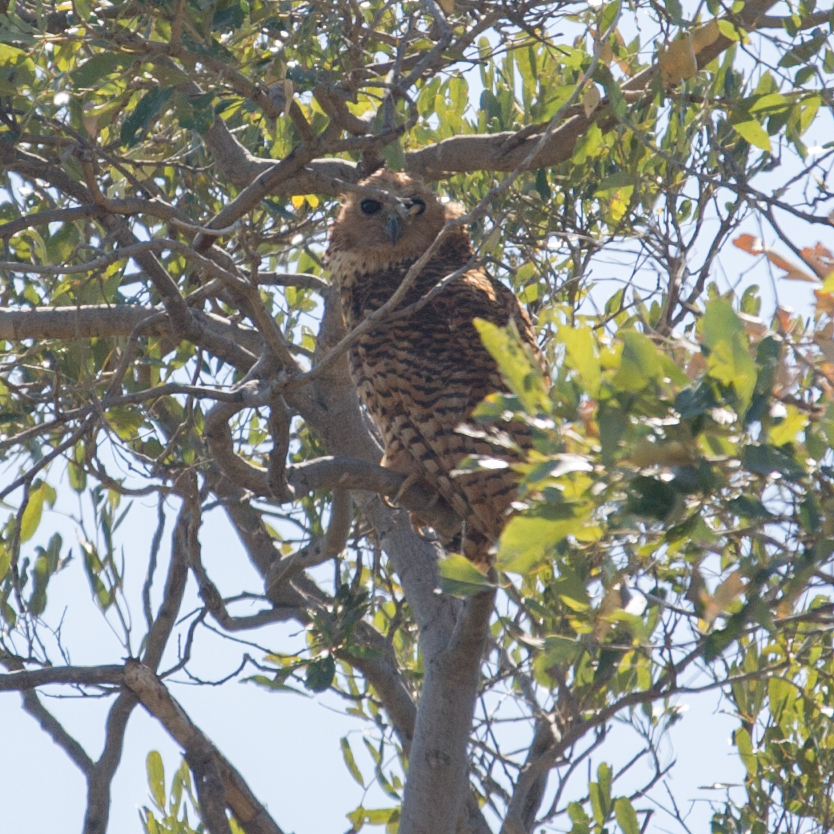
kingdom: Animalia
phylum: Chordata
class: Aves
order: Strigiformes
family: Strigidae
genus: Scotopelia
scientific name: Scotopelia peli
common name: Pel's fishing owl
